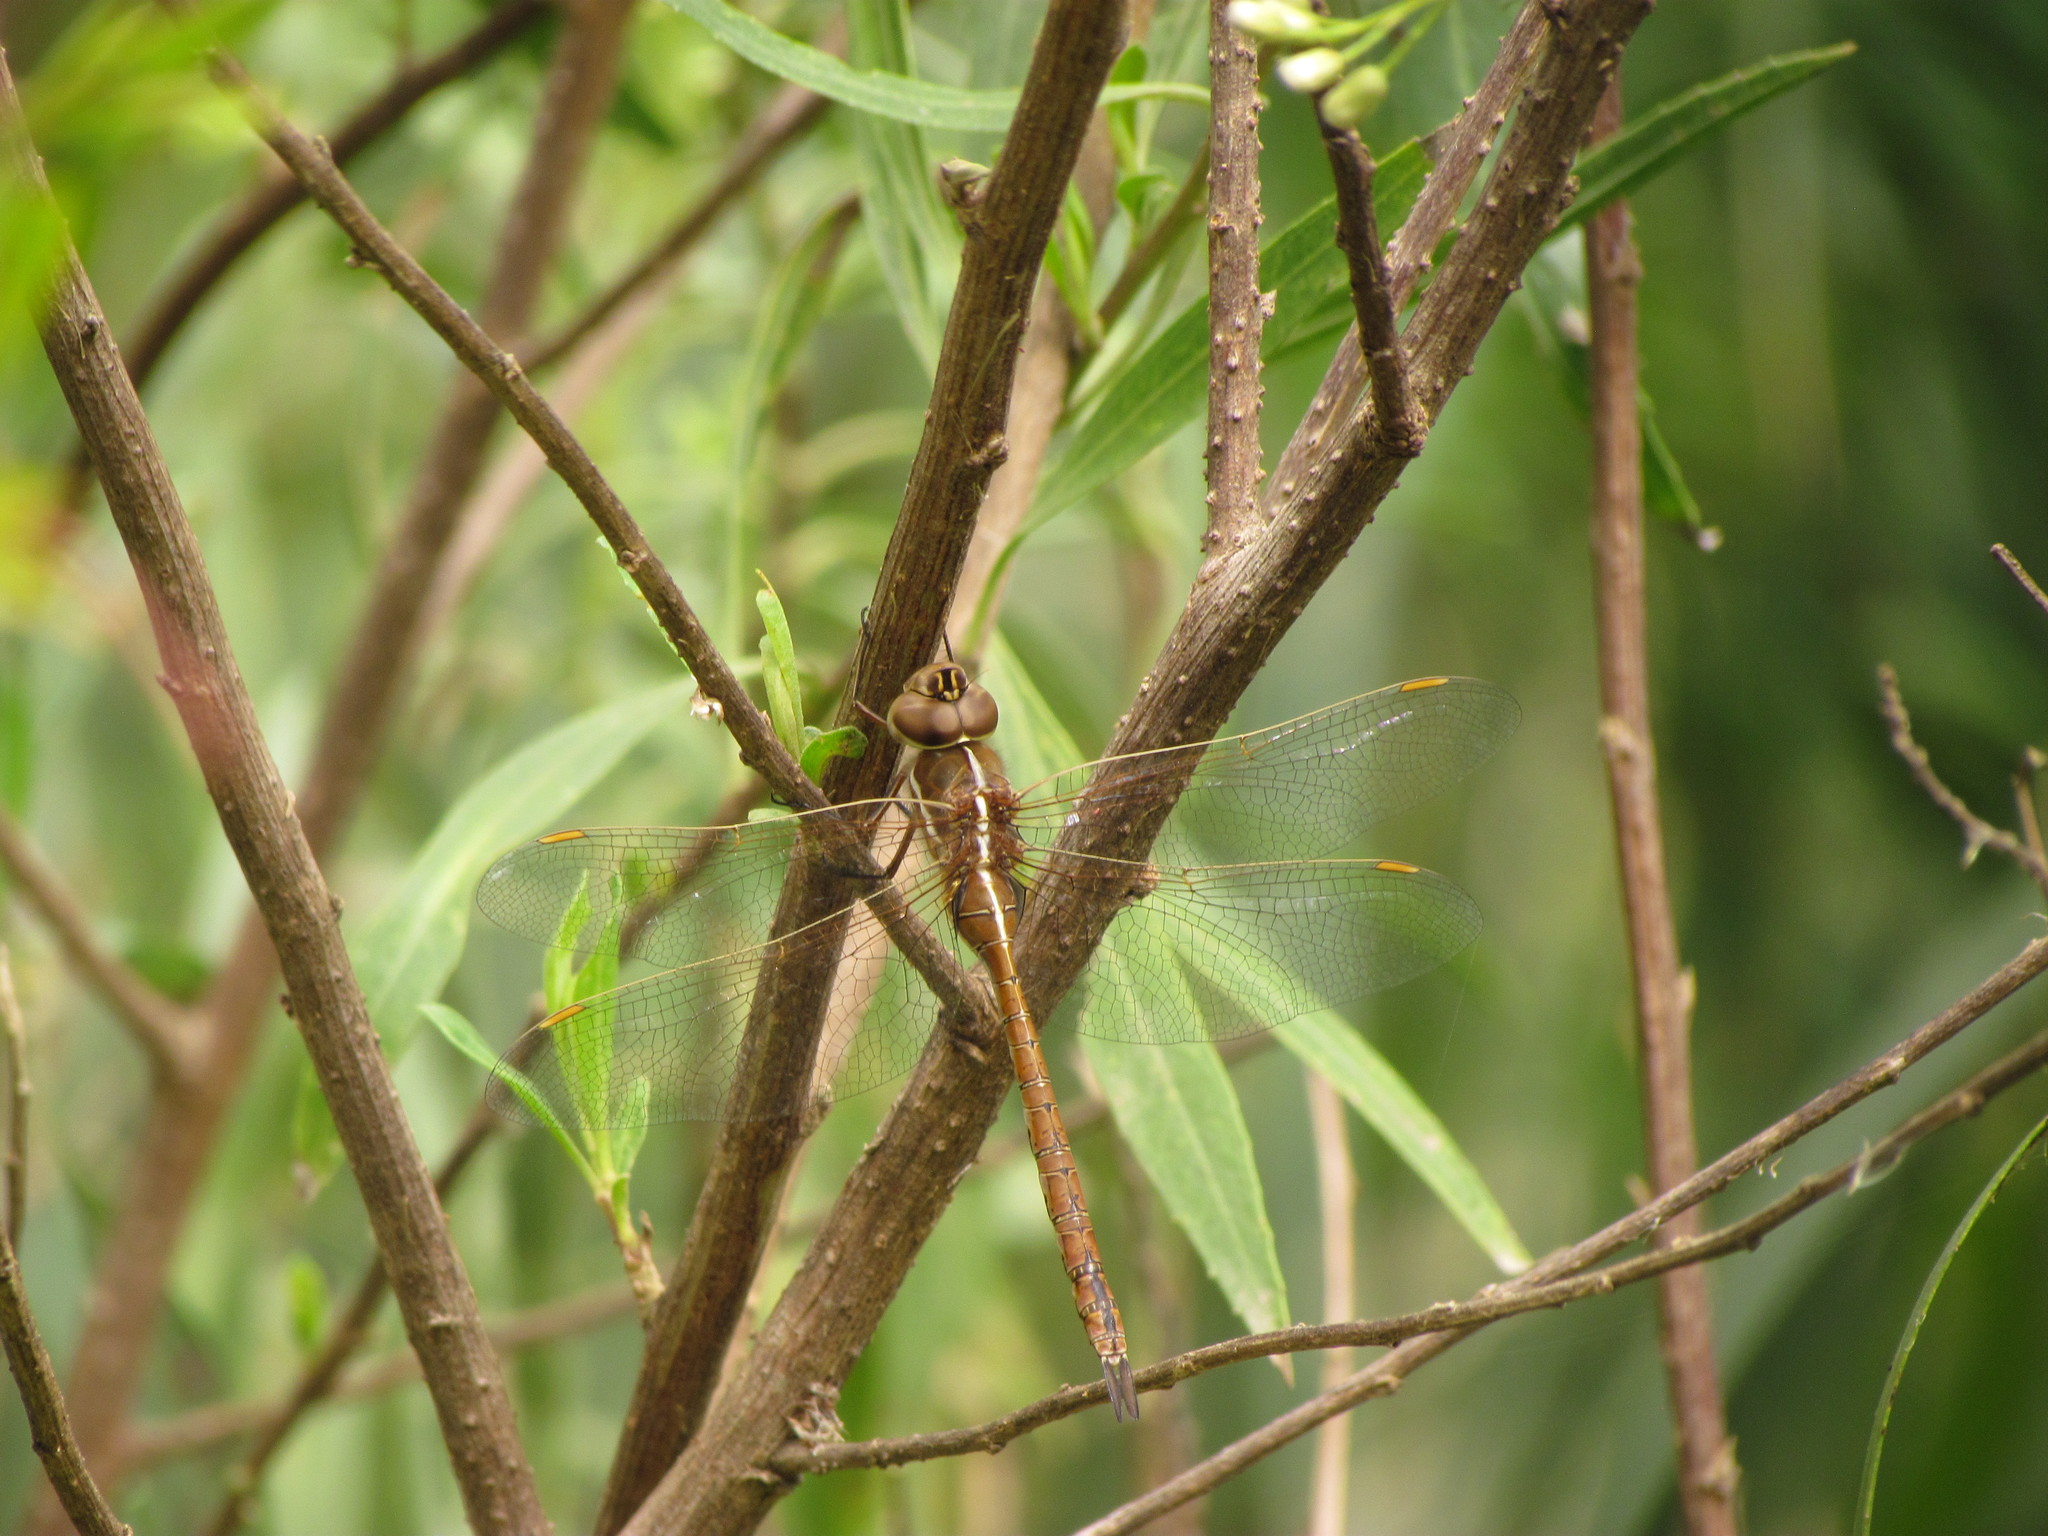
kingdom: Animalia
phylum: Arthropoda
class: Insecta
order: Odonata
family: Aeshnidae
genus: Rhionaeschna
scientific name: Rhionaeschna bonariensis
